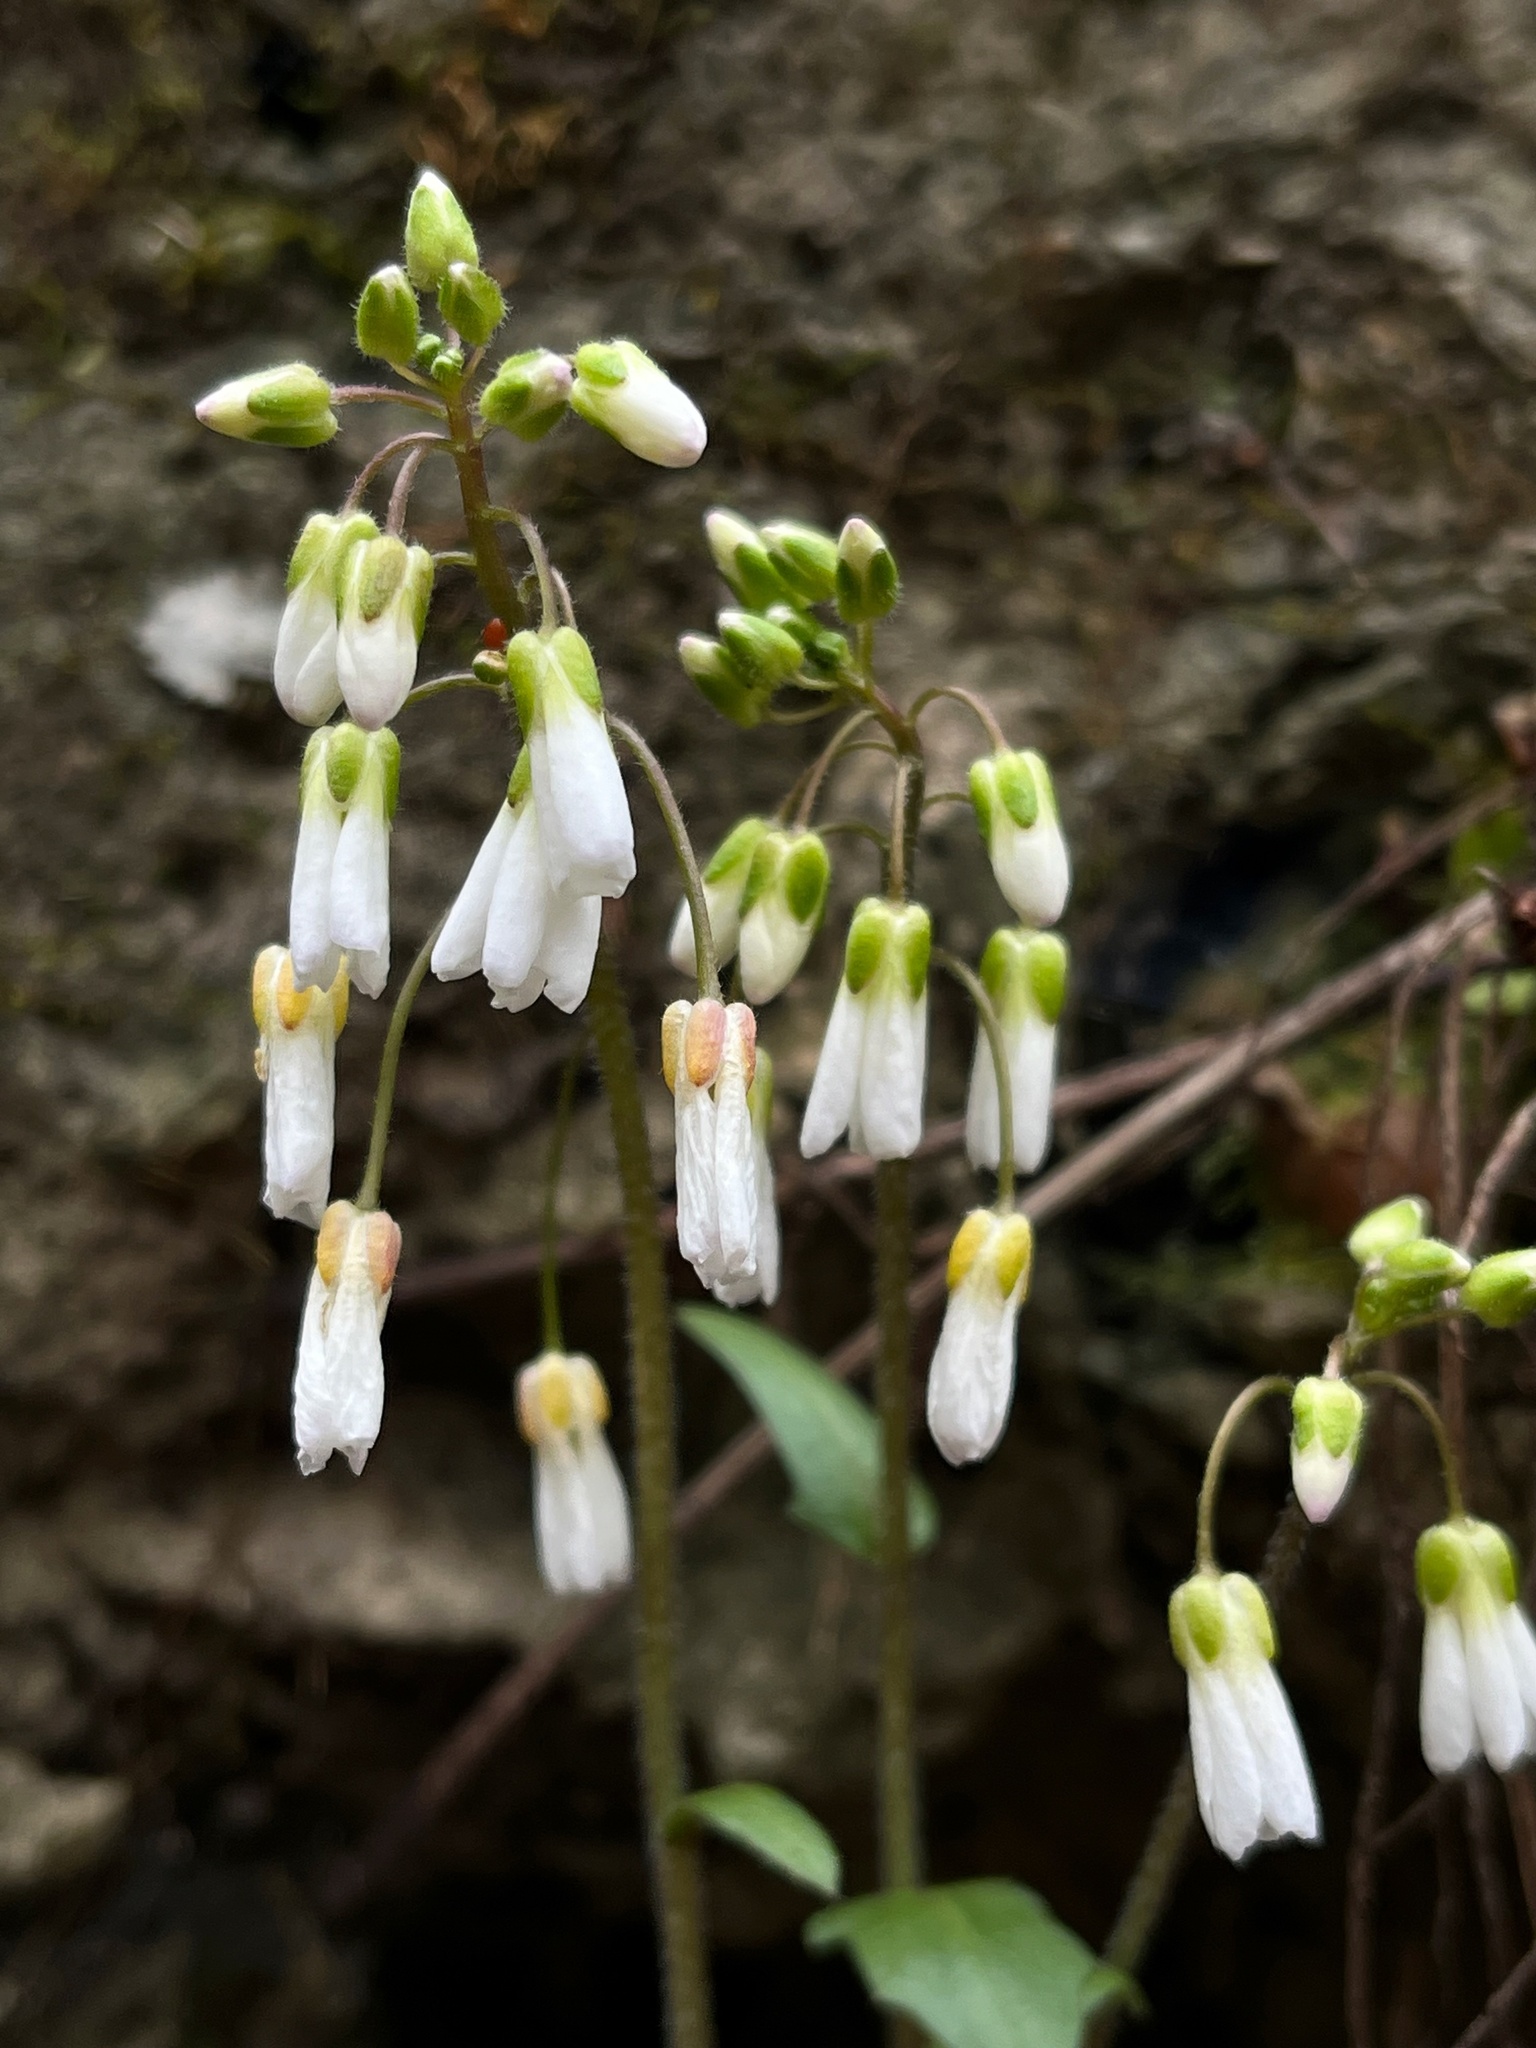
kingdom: Plantae
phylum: Tracheophyta
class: Magnoliopsida
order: Brassicales
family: Brassicaceae
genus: Cardamine
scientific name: Cardamine douglassii
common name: Purple cress
